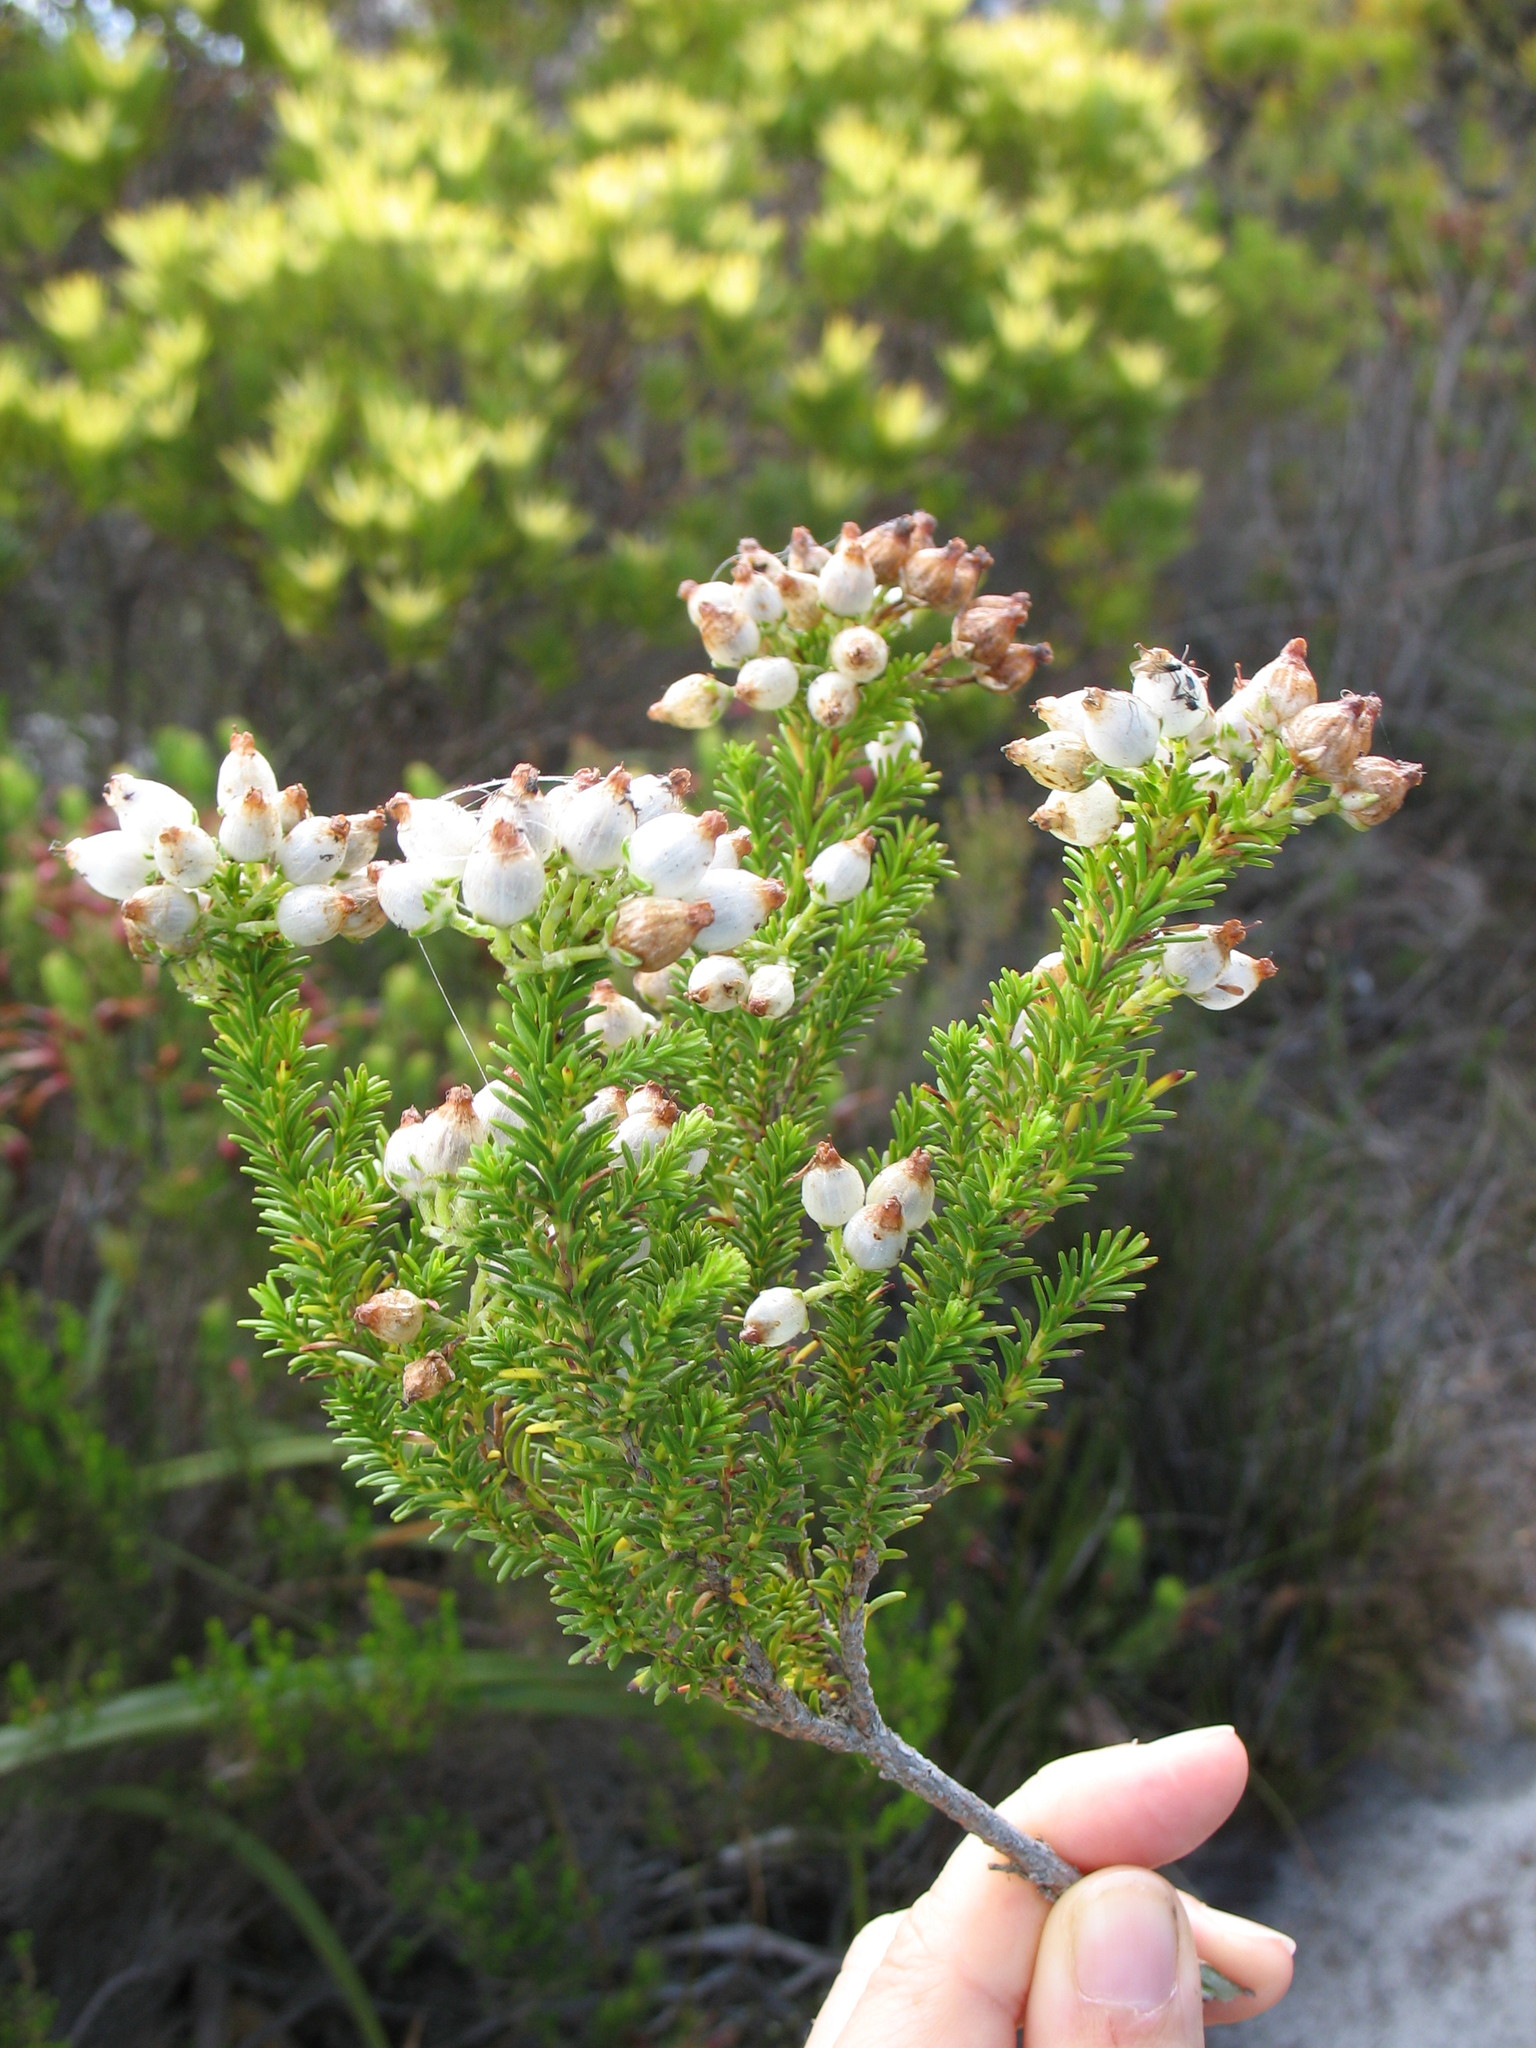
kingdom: Plantae
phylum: Tracheophyta
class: Magnoliopsida
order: Ericales
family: Ericaceae
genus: Erica
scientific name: Erica physodes
